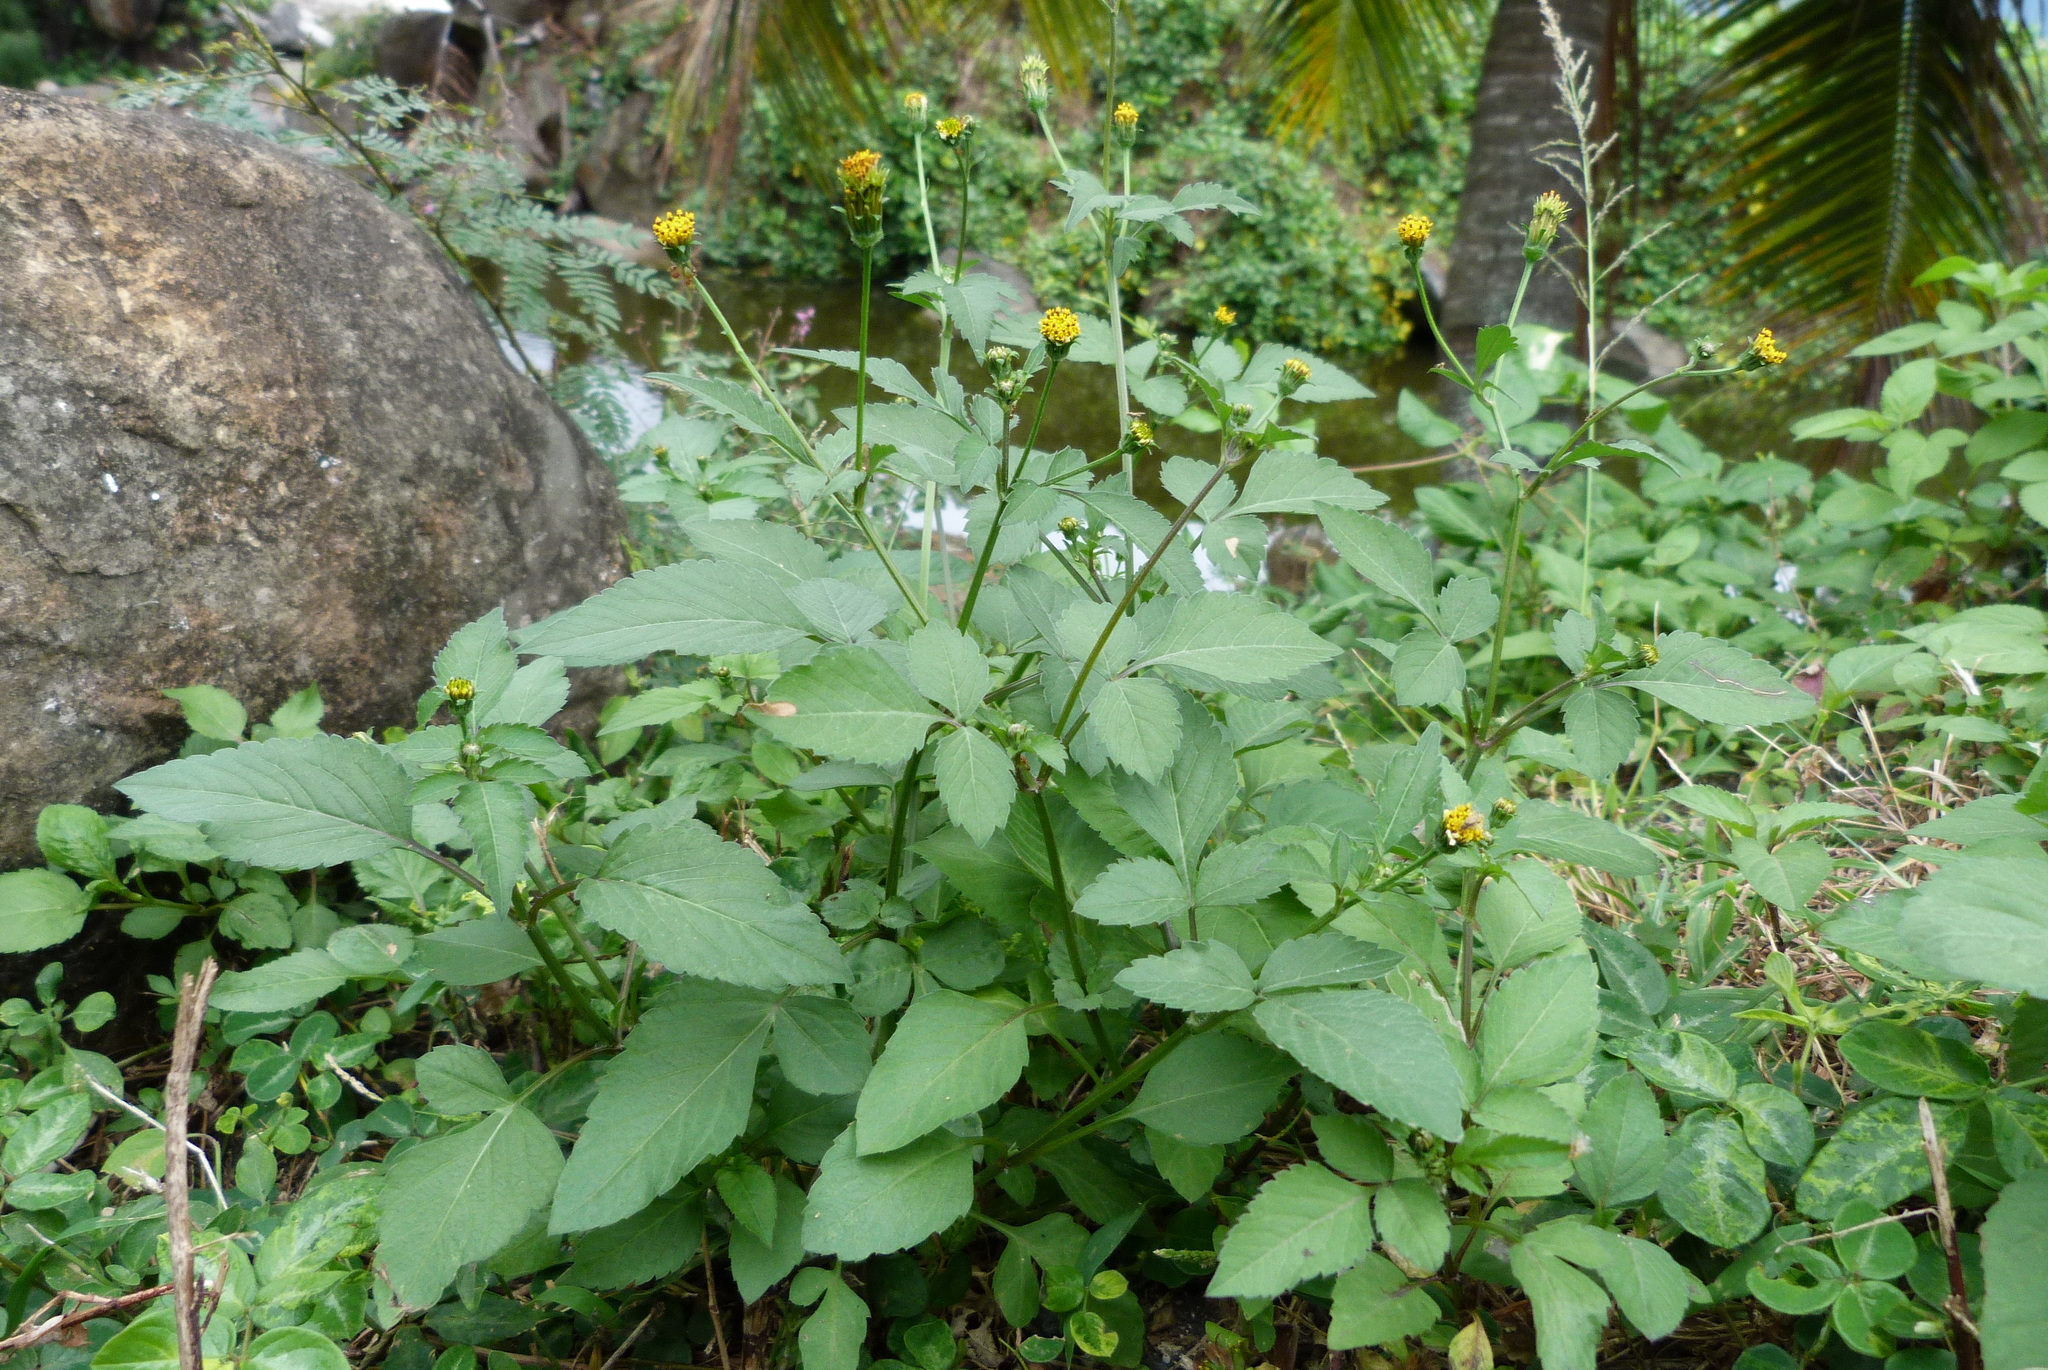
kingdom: Plantae
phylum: Tracheophyta
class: Magnoliopsida
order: Asterales
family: Asteraceae
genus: Bidens
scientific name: Bidens pilosa
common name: Black-jack
